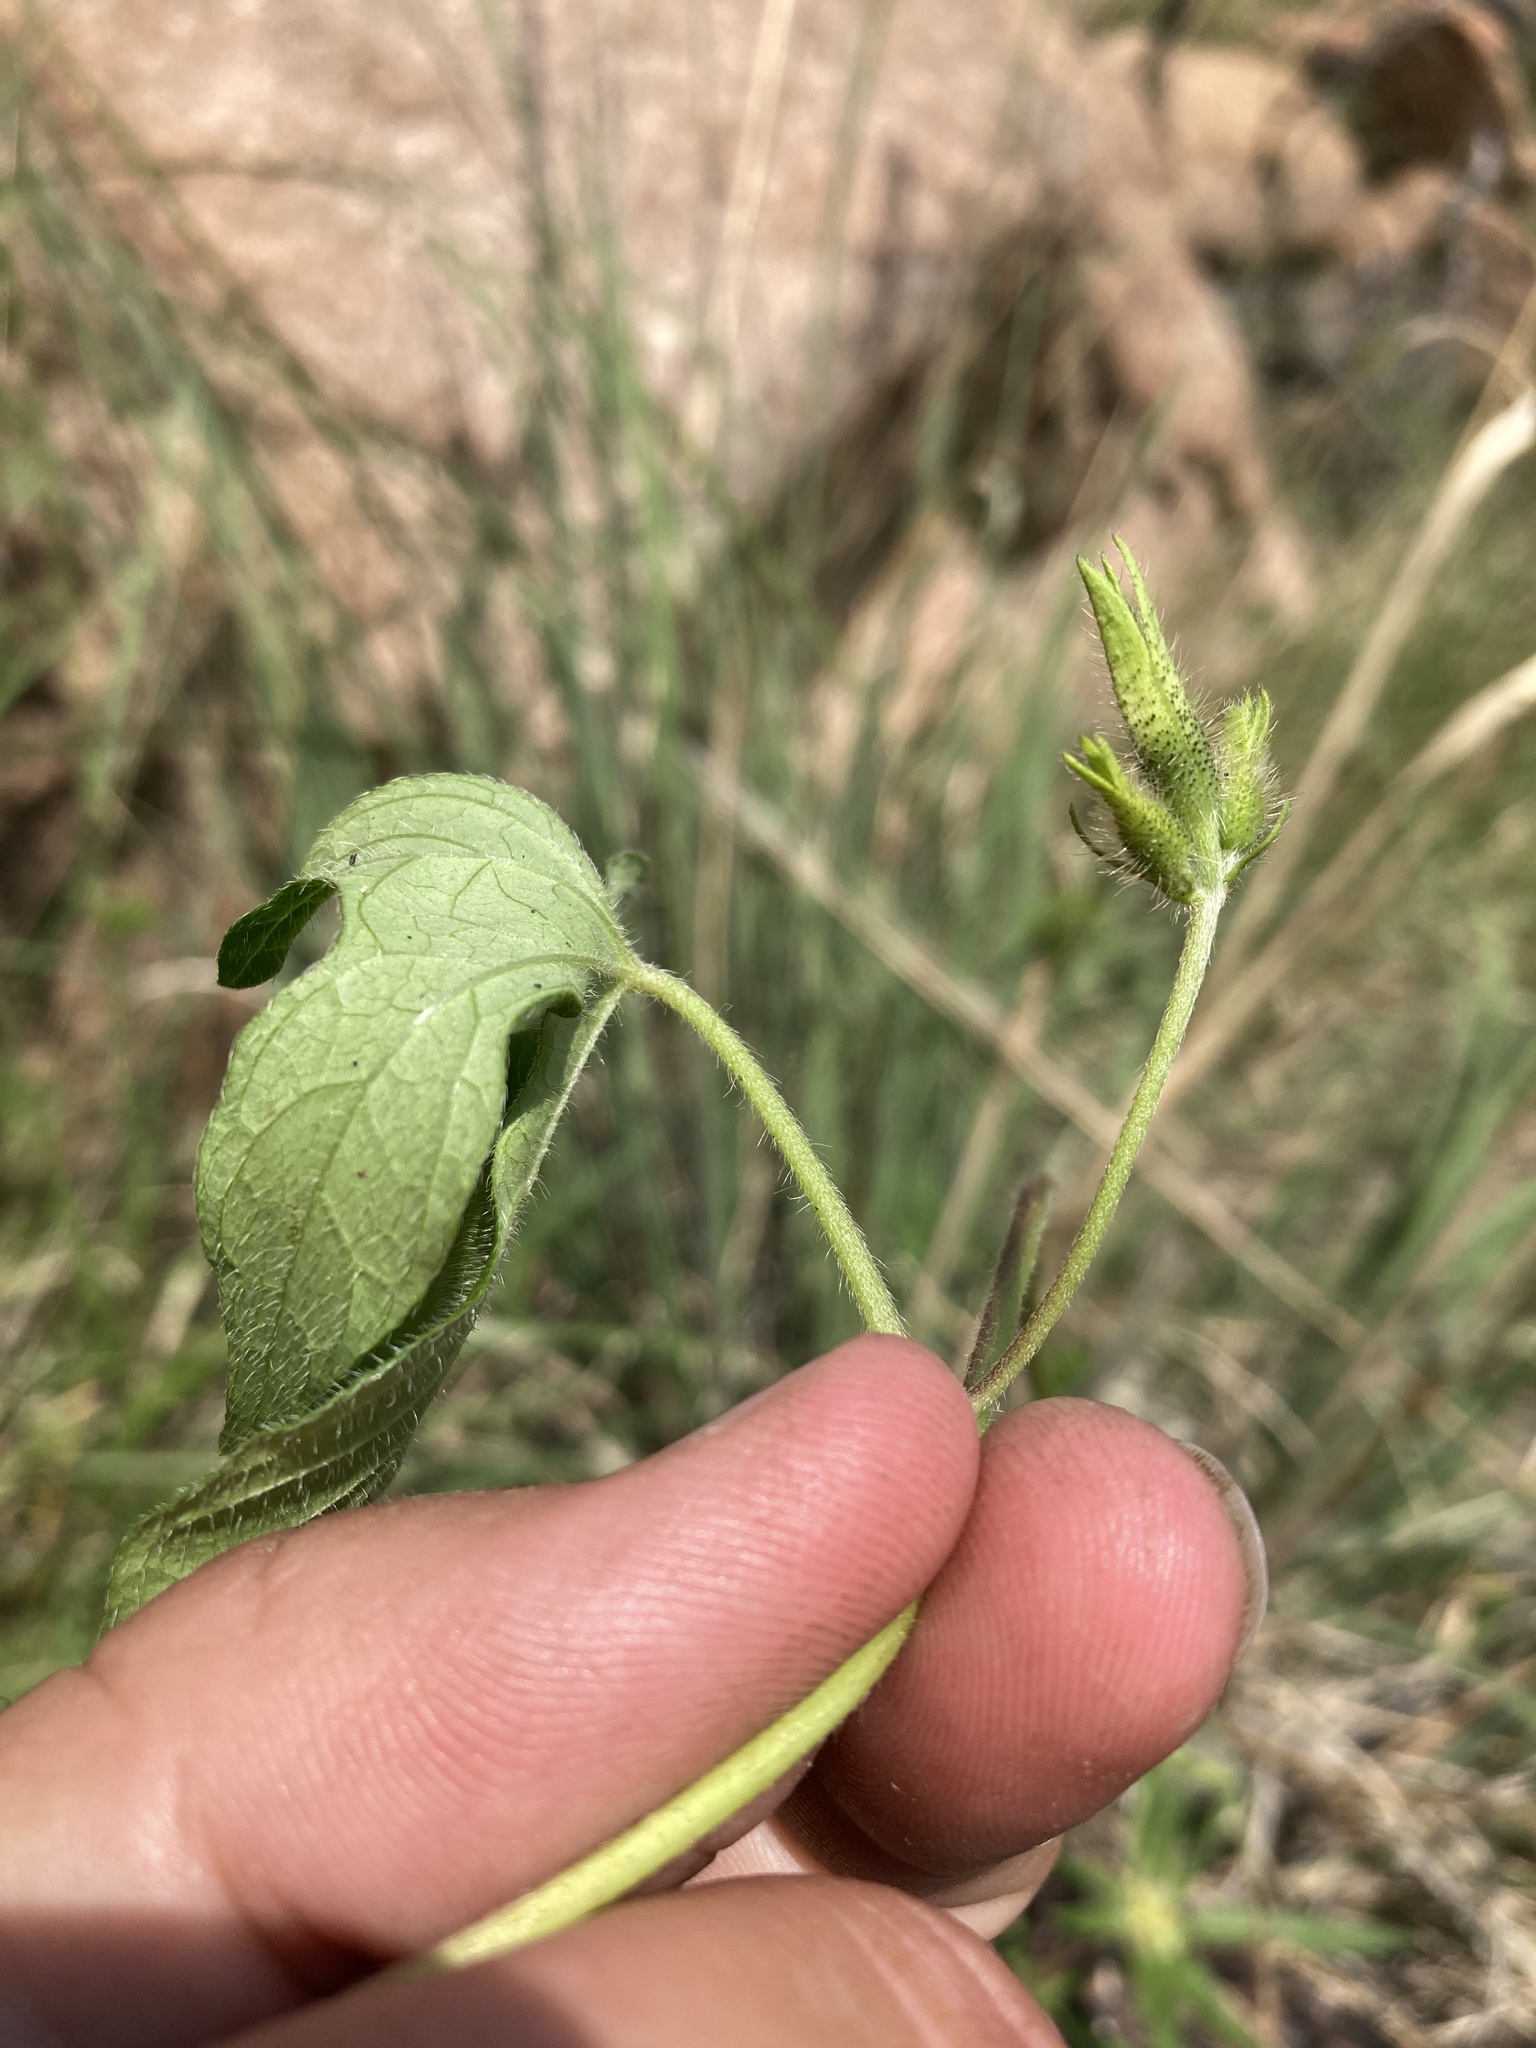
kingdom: Plantae
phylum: Tracheophyta
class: Magnoliopsida
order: Solanales
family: Convolvulaceae
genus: Ipomoea
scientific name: Ipomoea purpurea
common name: Common morning-glory
